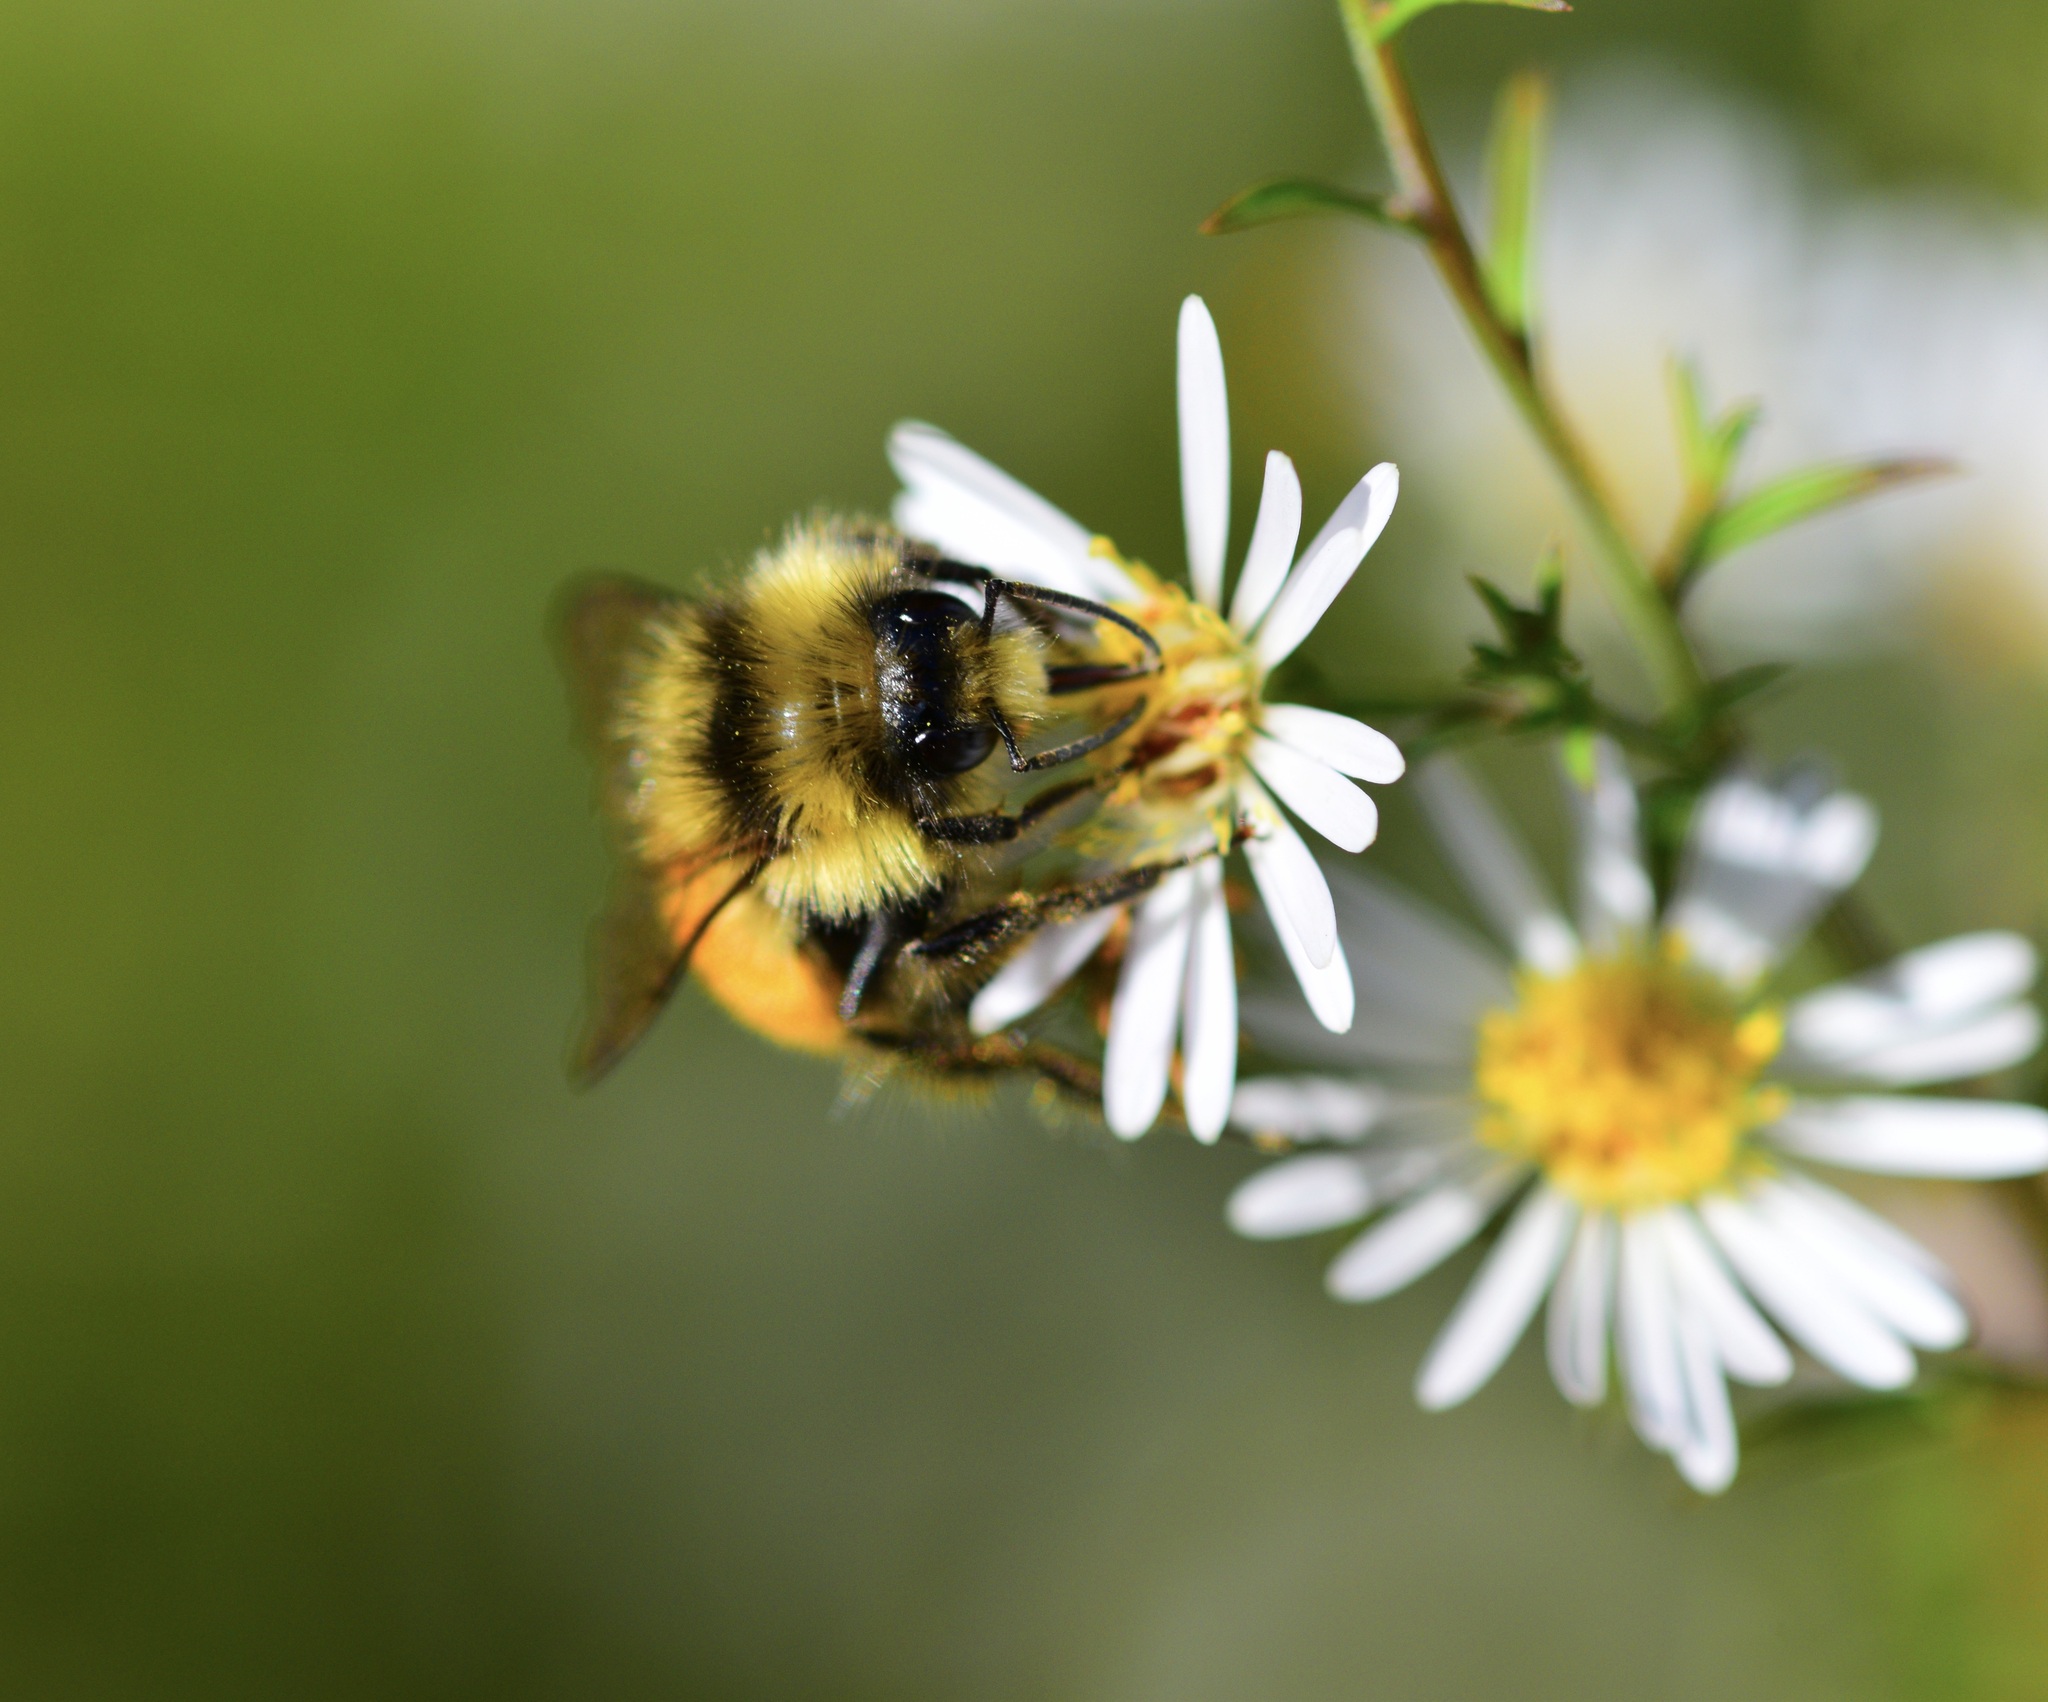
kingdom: Animalia
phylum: Arthropoda
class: Insecta
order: Hymenoptera
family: Apidae
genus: Bombus
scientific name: Bombus ternarius
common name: Tri-colored bumble bee
